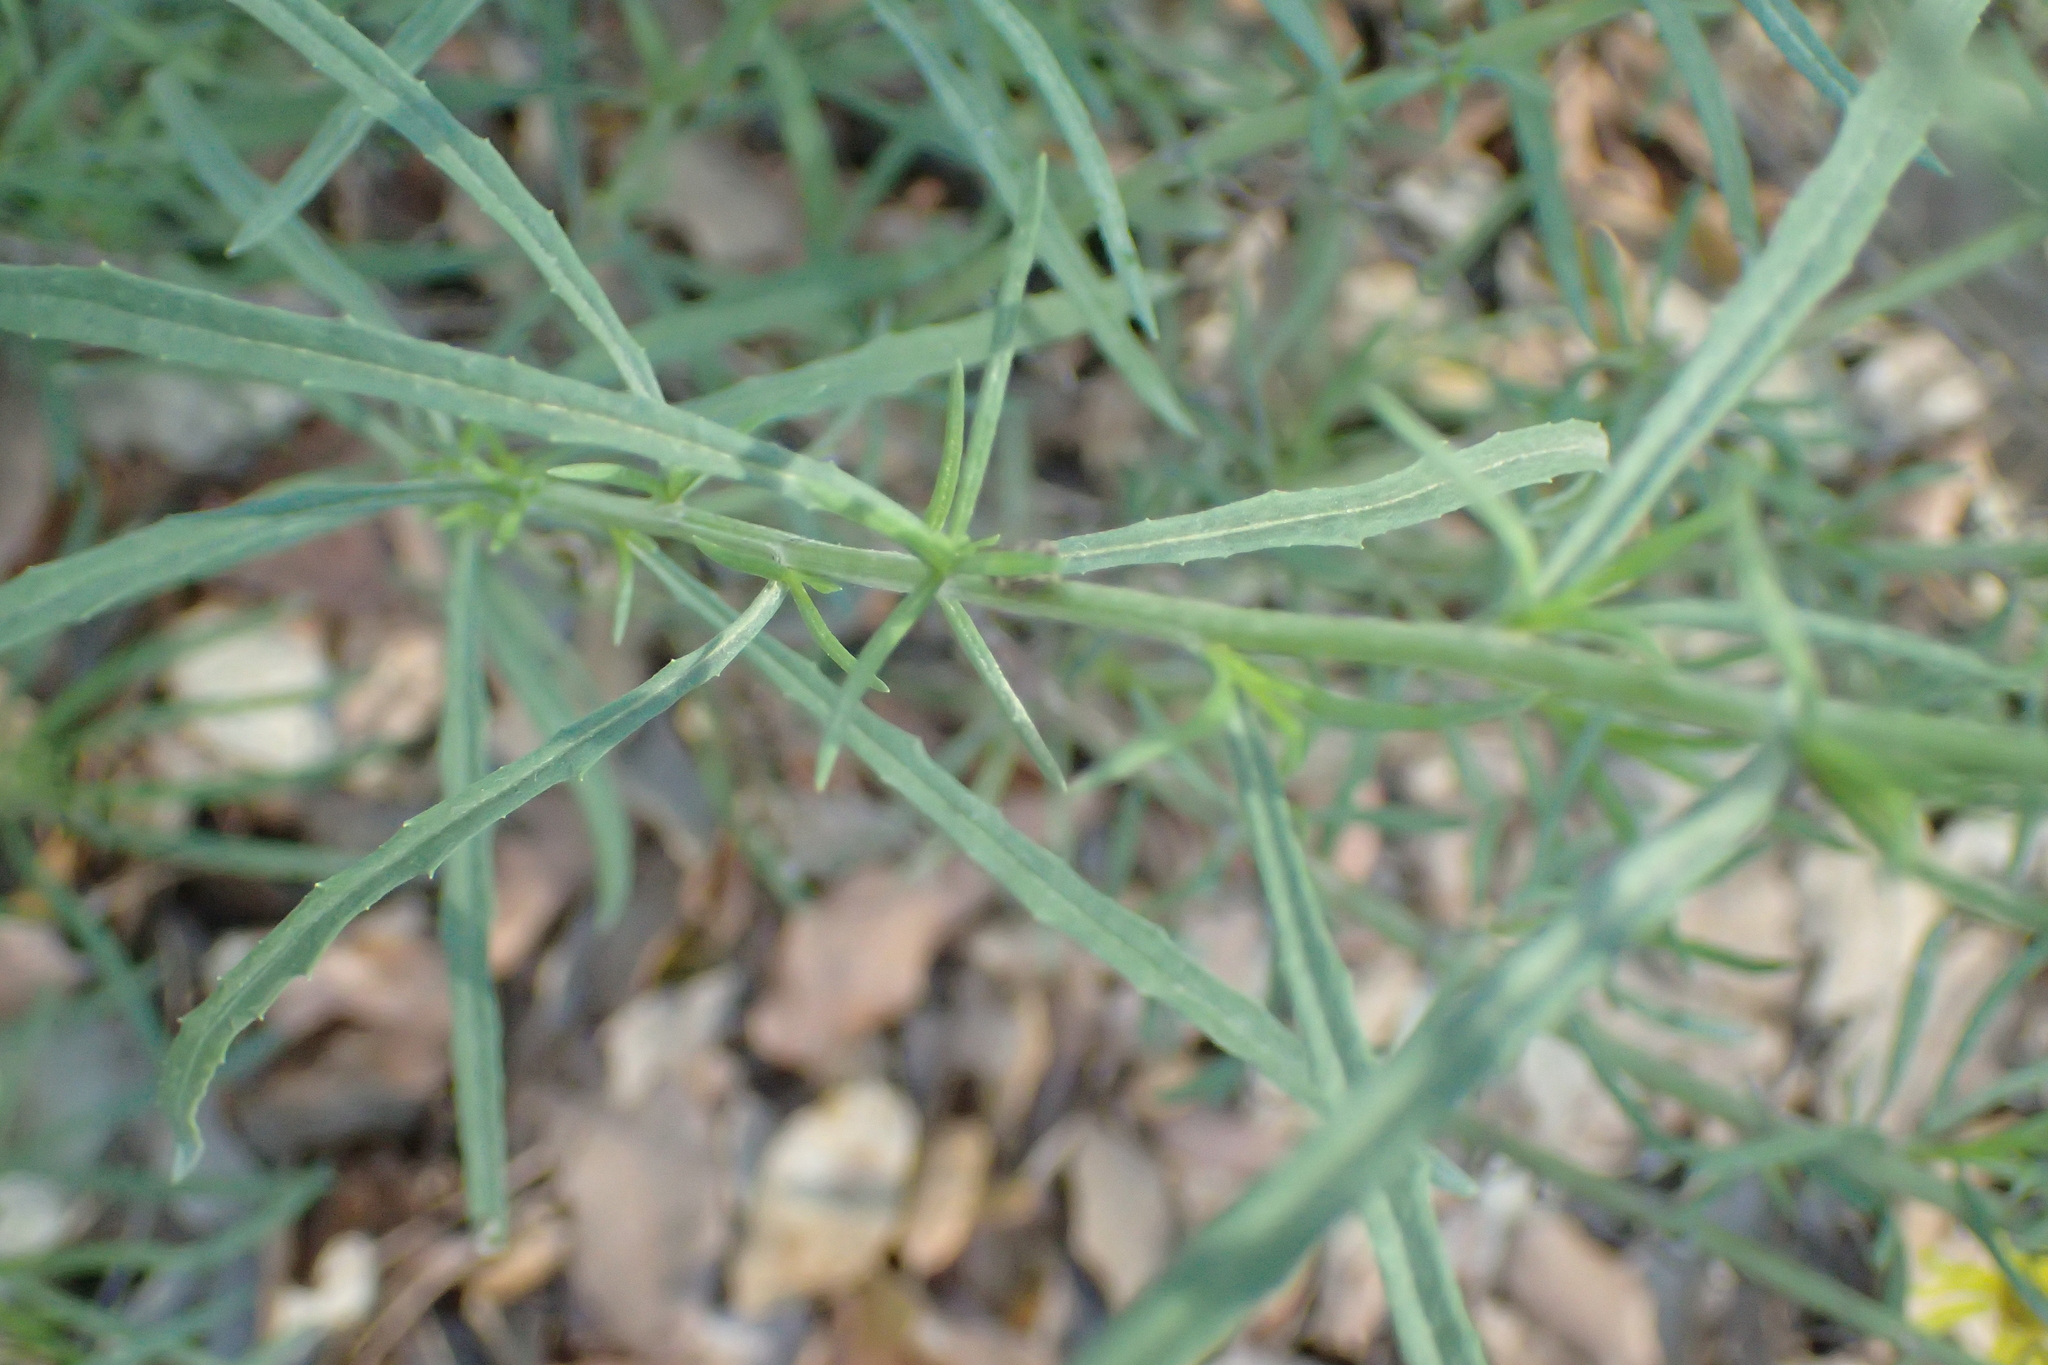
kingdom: Plantae
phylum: Tracheophyta
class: Magnoliopsida
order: Asterales
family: Asteraceae
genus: Senecio
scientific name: Senecio inaequidens
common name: Narrow-leaved ragwort
